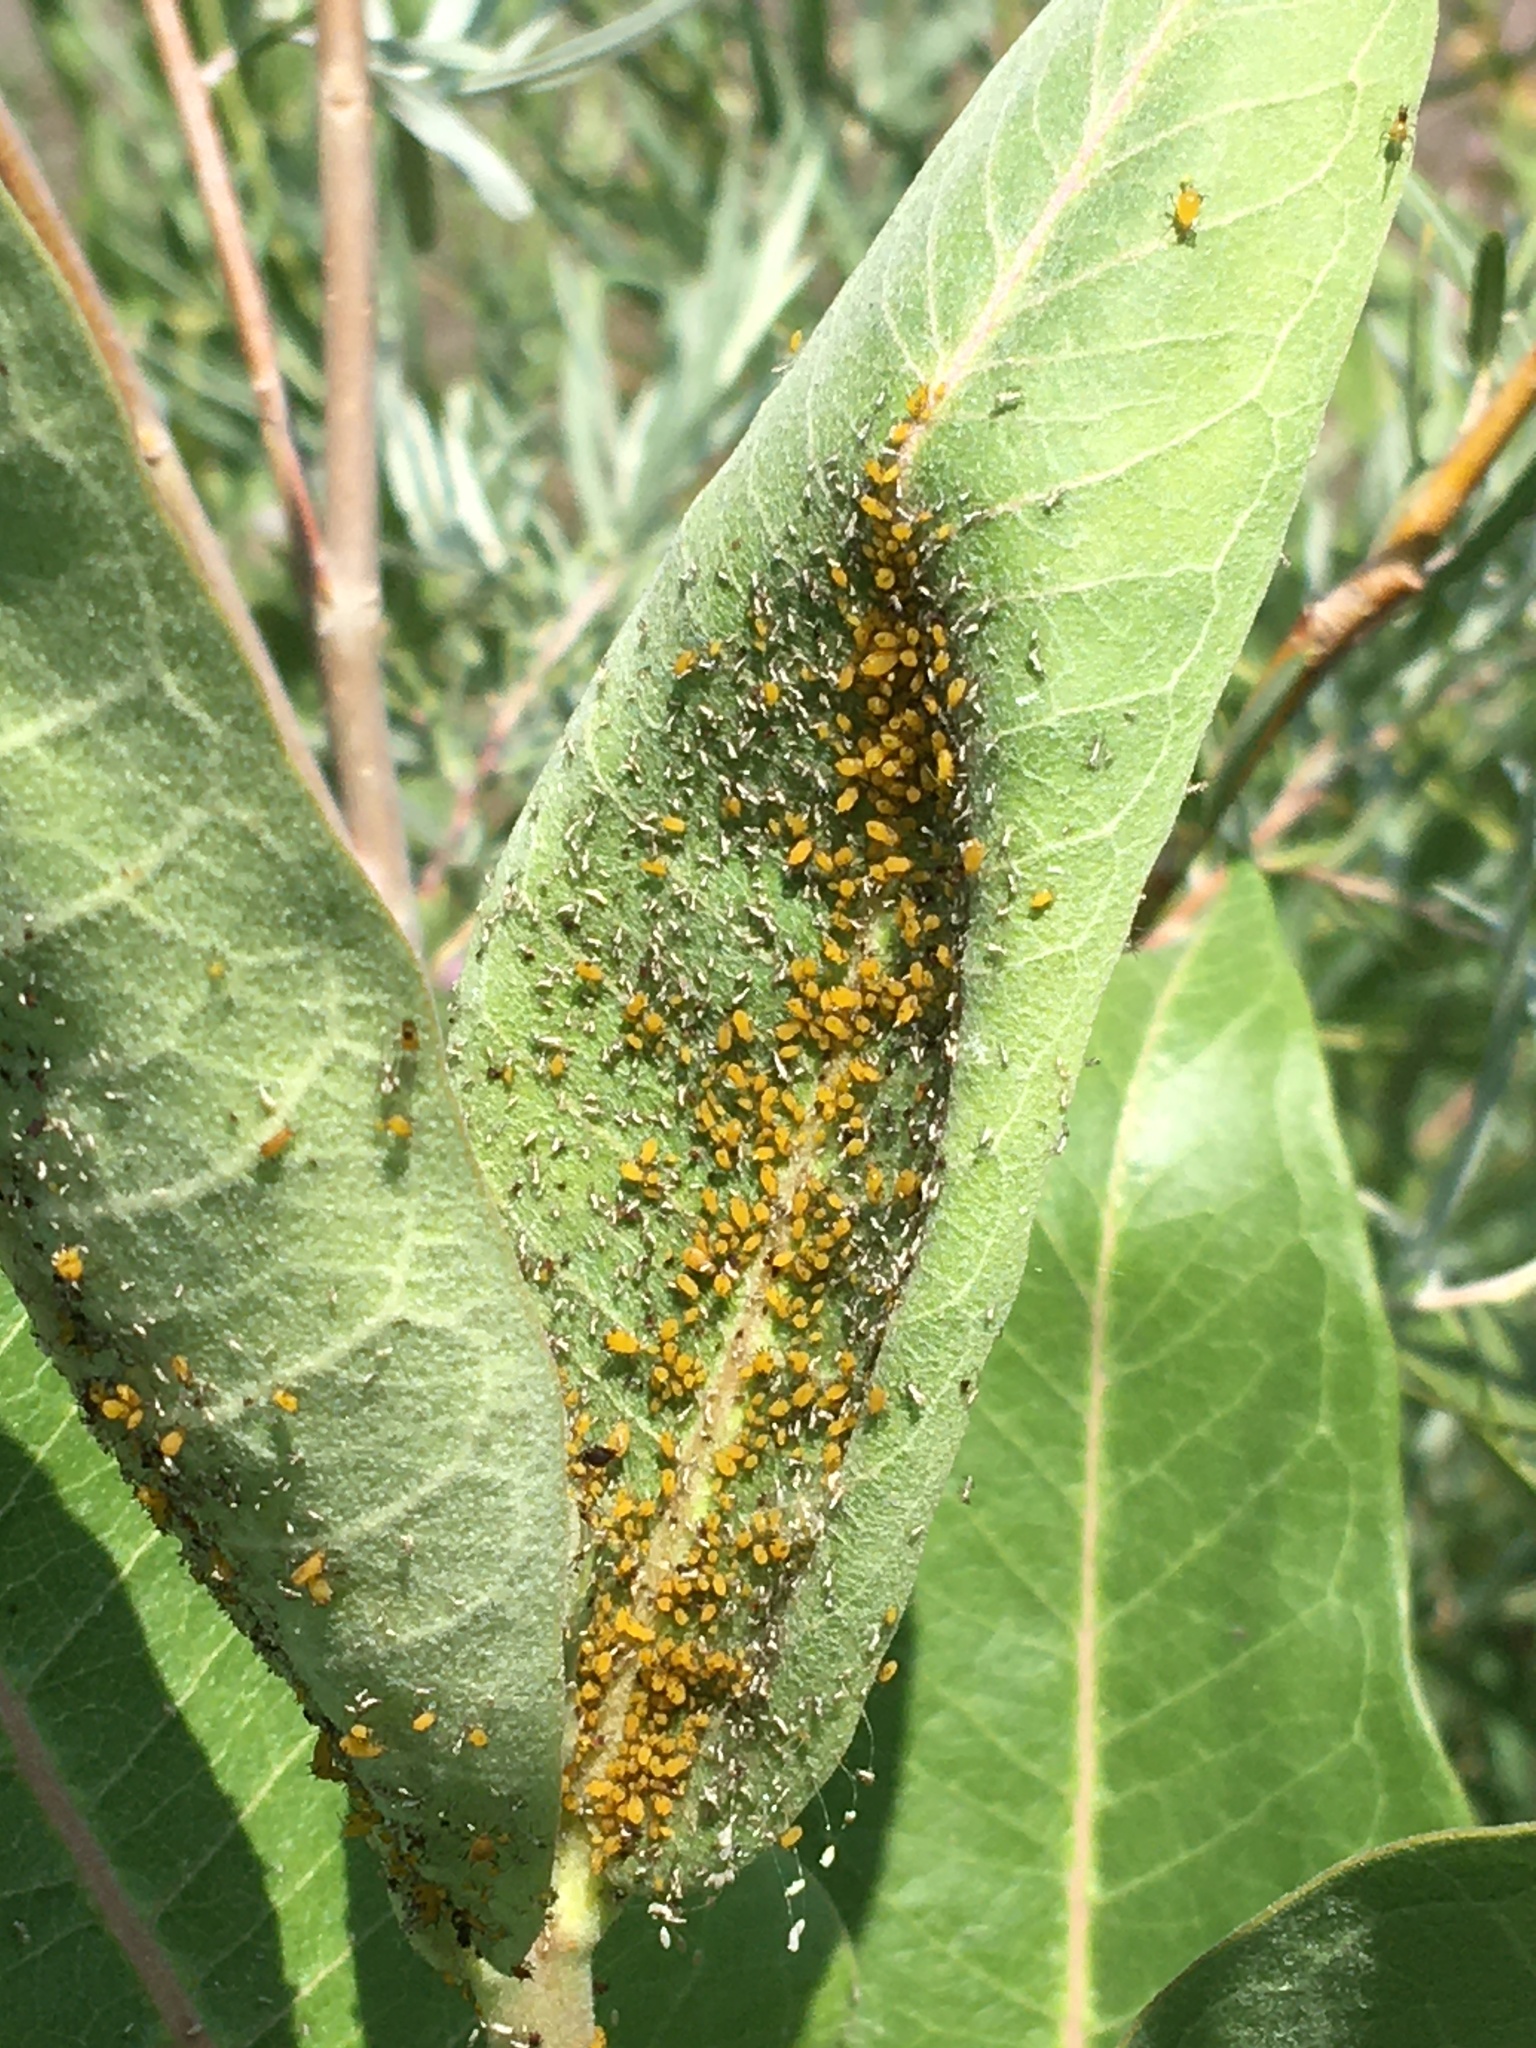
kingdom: Animalia
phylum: Arthropoda
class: Insecta
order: Hemiptera
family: Aphididae
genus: Aphis
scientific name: Aphis nerii
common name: Oleander aphid
